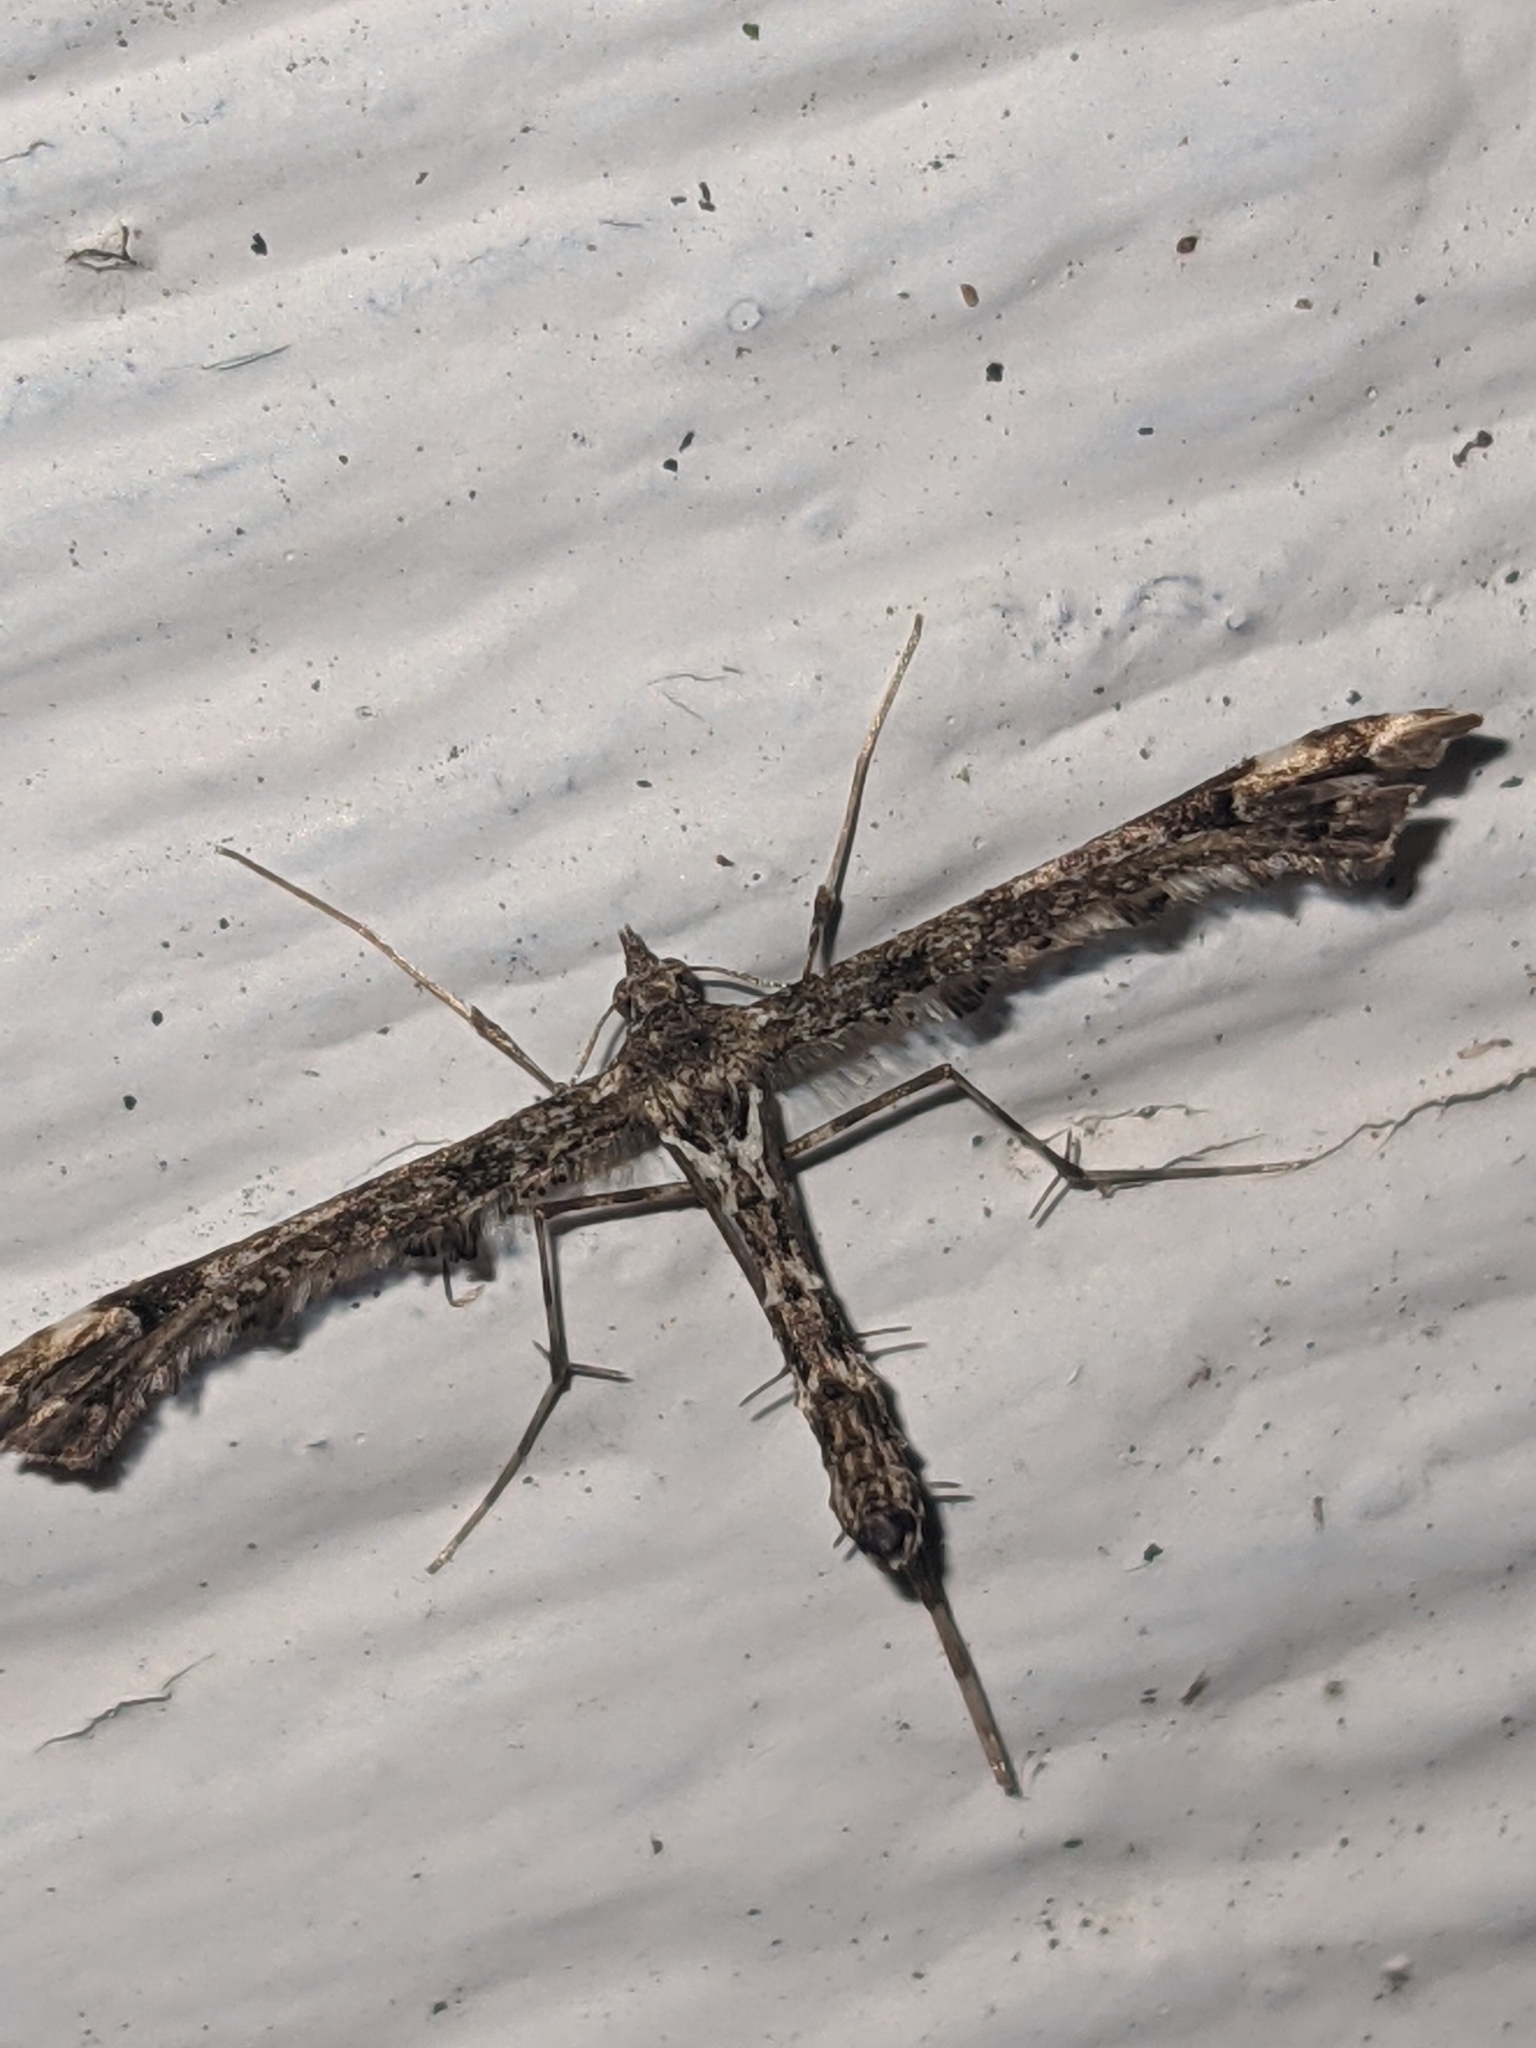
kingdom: Animalia
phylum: Arthropoda
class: Insecta
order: Lepidoptera
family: Pterophoridae
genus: Amblyptilia
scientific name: Amblyptilia pica
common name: Geranium plume moth
